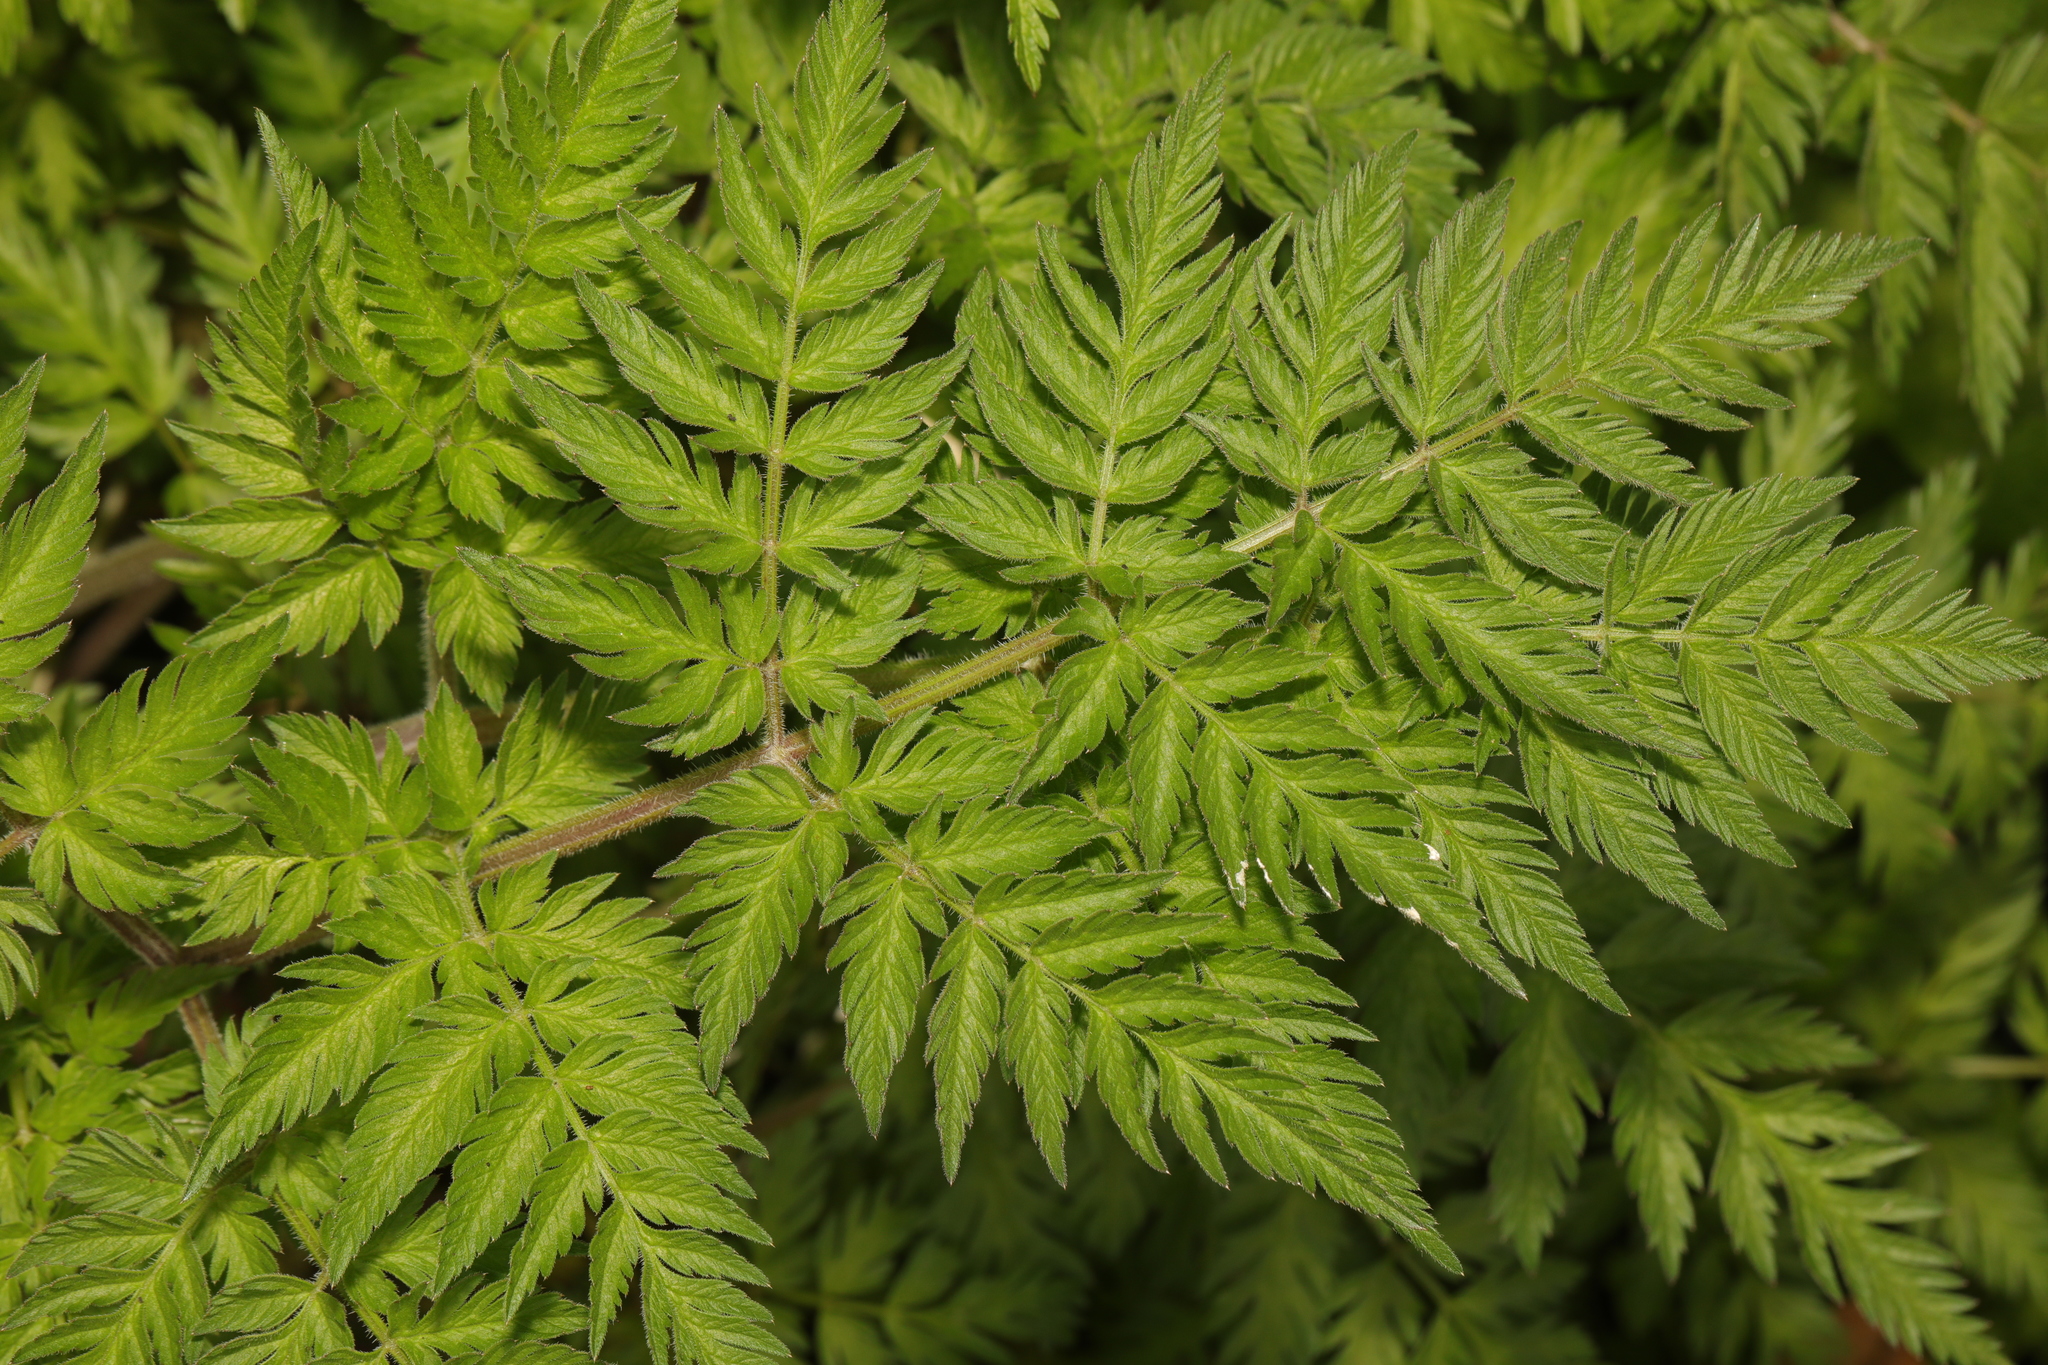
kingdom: Plantae
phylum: Tracheophyta
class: Magnoliopsida
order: Apiales
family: Apiaceae
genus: Anthriscus
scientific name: Anthriscus sylvestris
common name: Cow parsley
